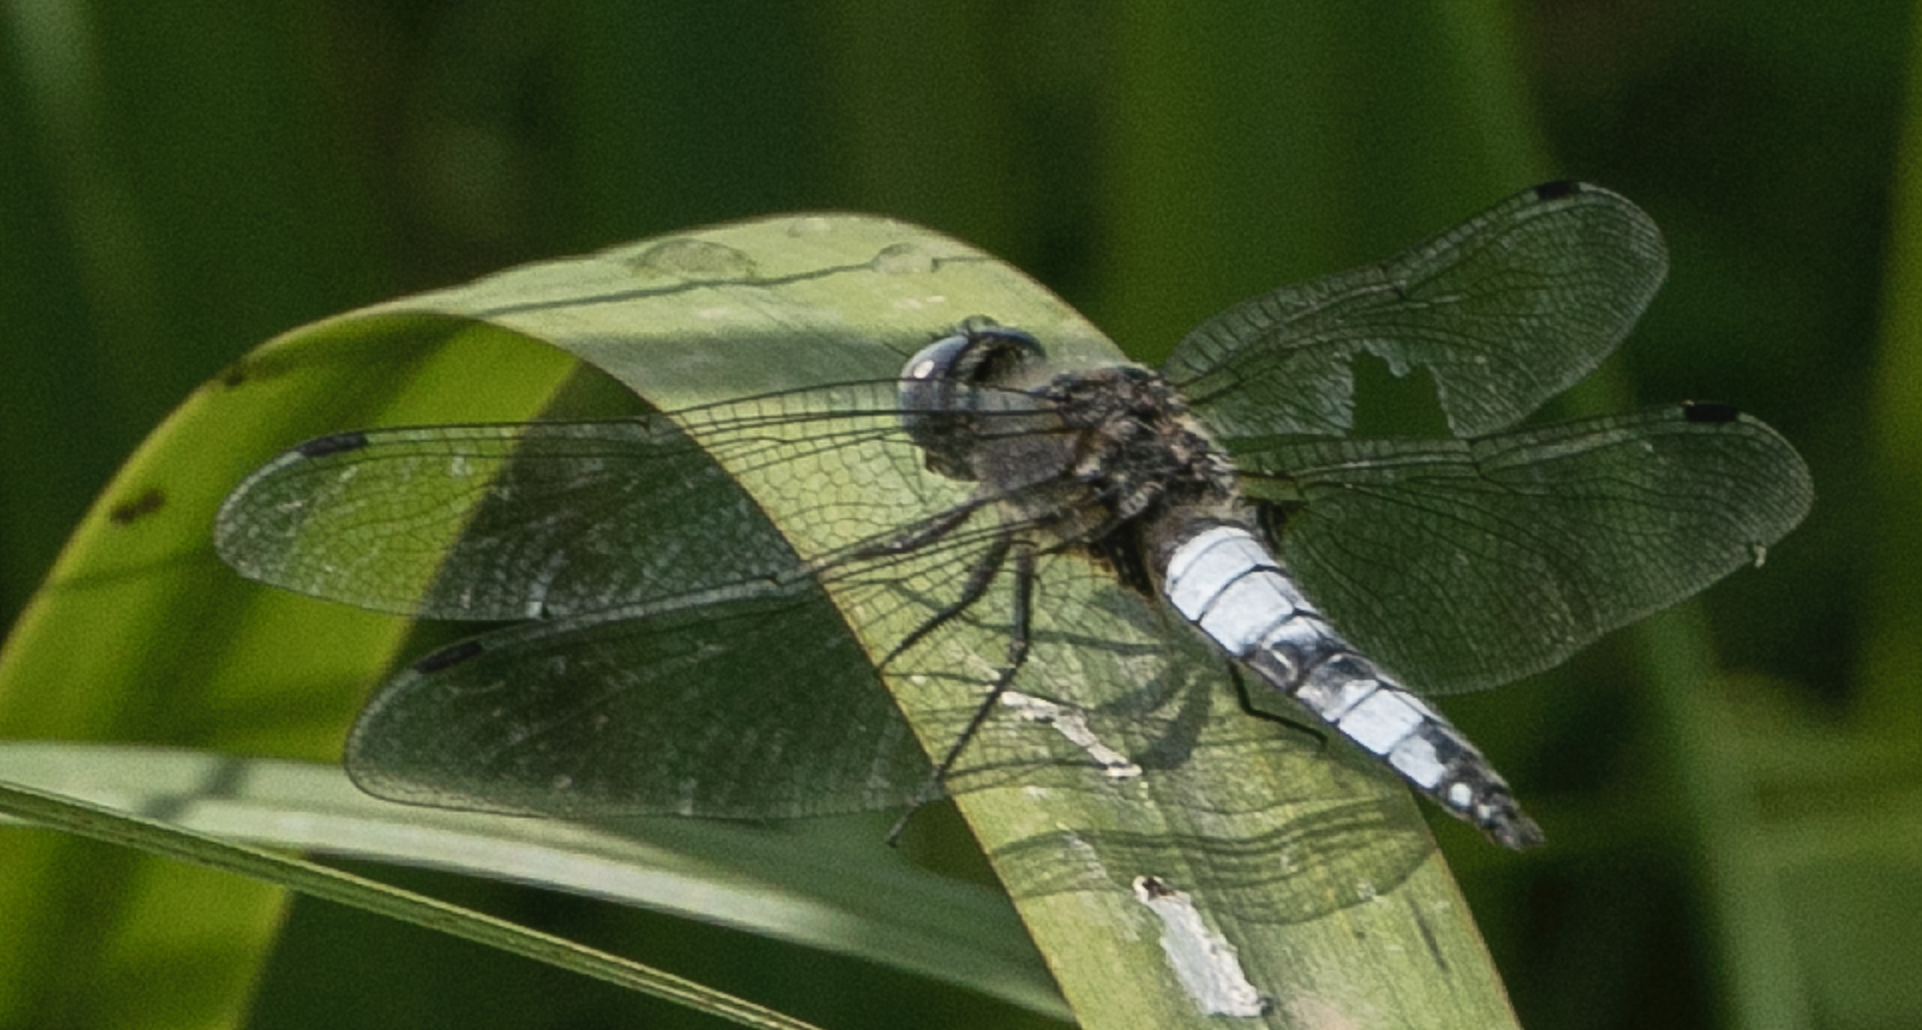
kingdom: Animalia
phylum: Arthropoda
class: Insecta
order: Odonata
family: Libellulidae
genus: Libellula
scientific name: Libellula fulva
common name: Blue chaser
